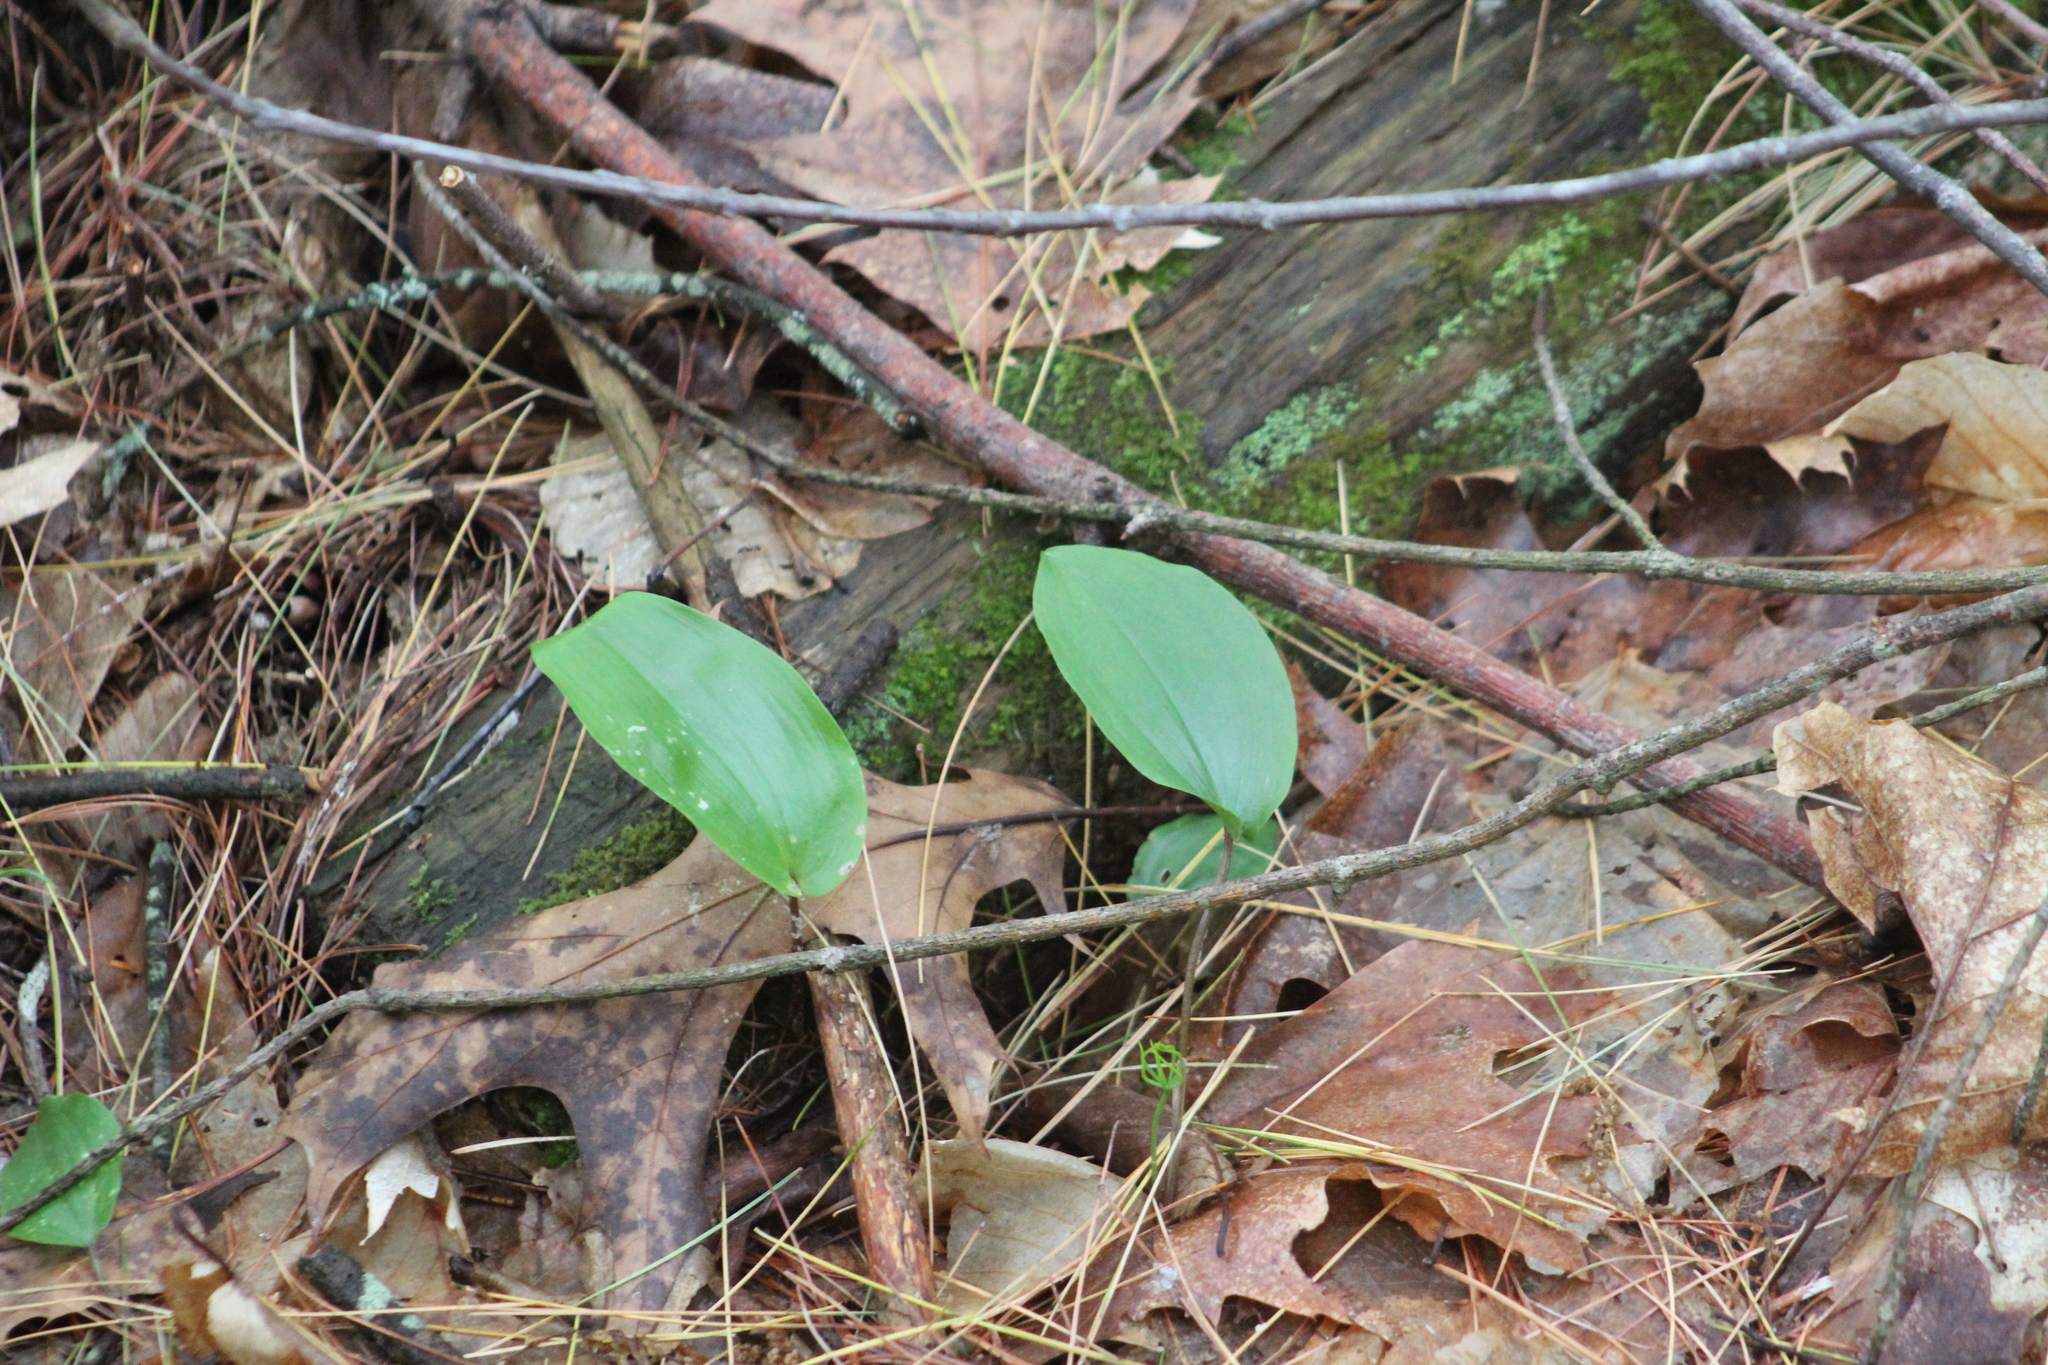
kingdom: Plantae
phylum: Tracheophyta
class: Liliopsida
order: Asparagales
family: Asparagaceae
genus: Maianthemum
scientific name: Maianthemum canadense
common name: False lily-of-the-valley
